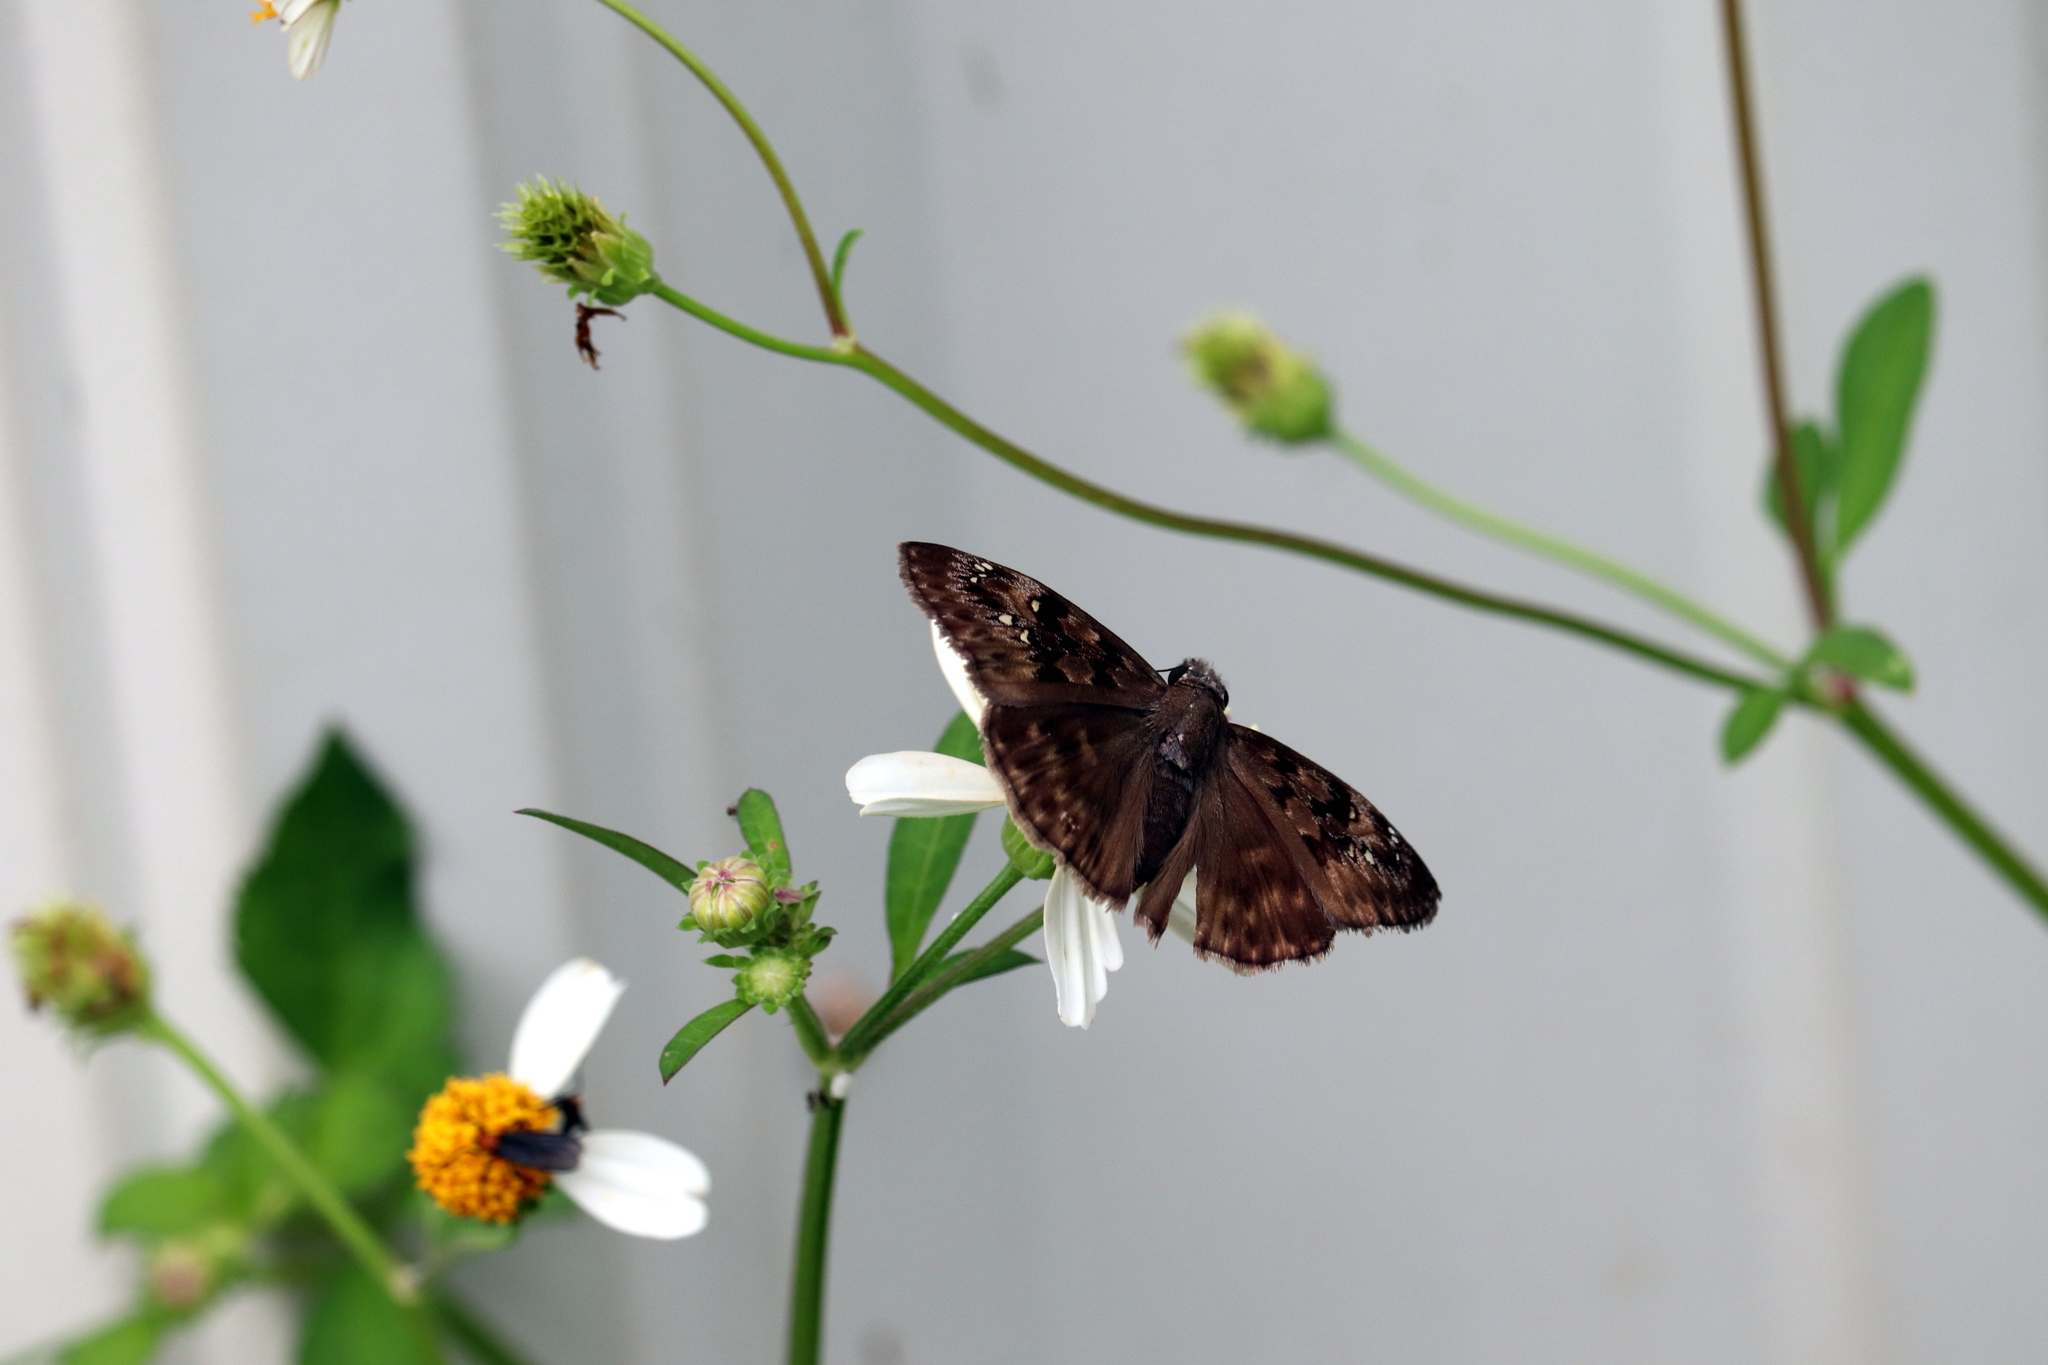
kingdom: Animalia
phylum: Arthropoda
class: Insecta
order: Lepidoptera
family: Hesperiidae
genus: Erynnis
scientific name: Erynnis horatius
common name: Horace's duskywing
